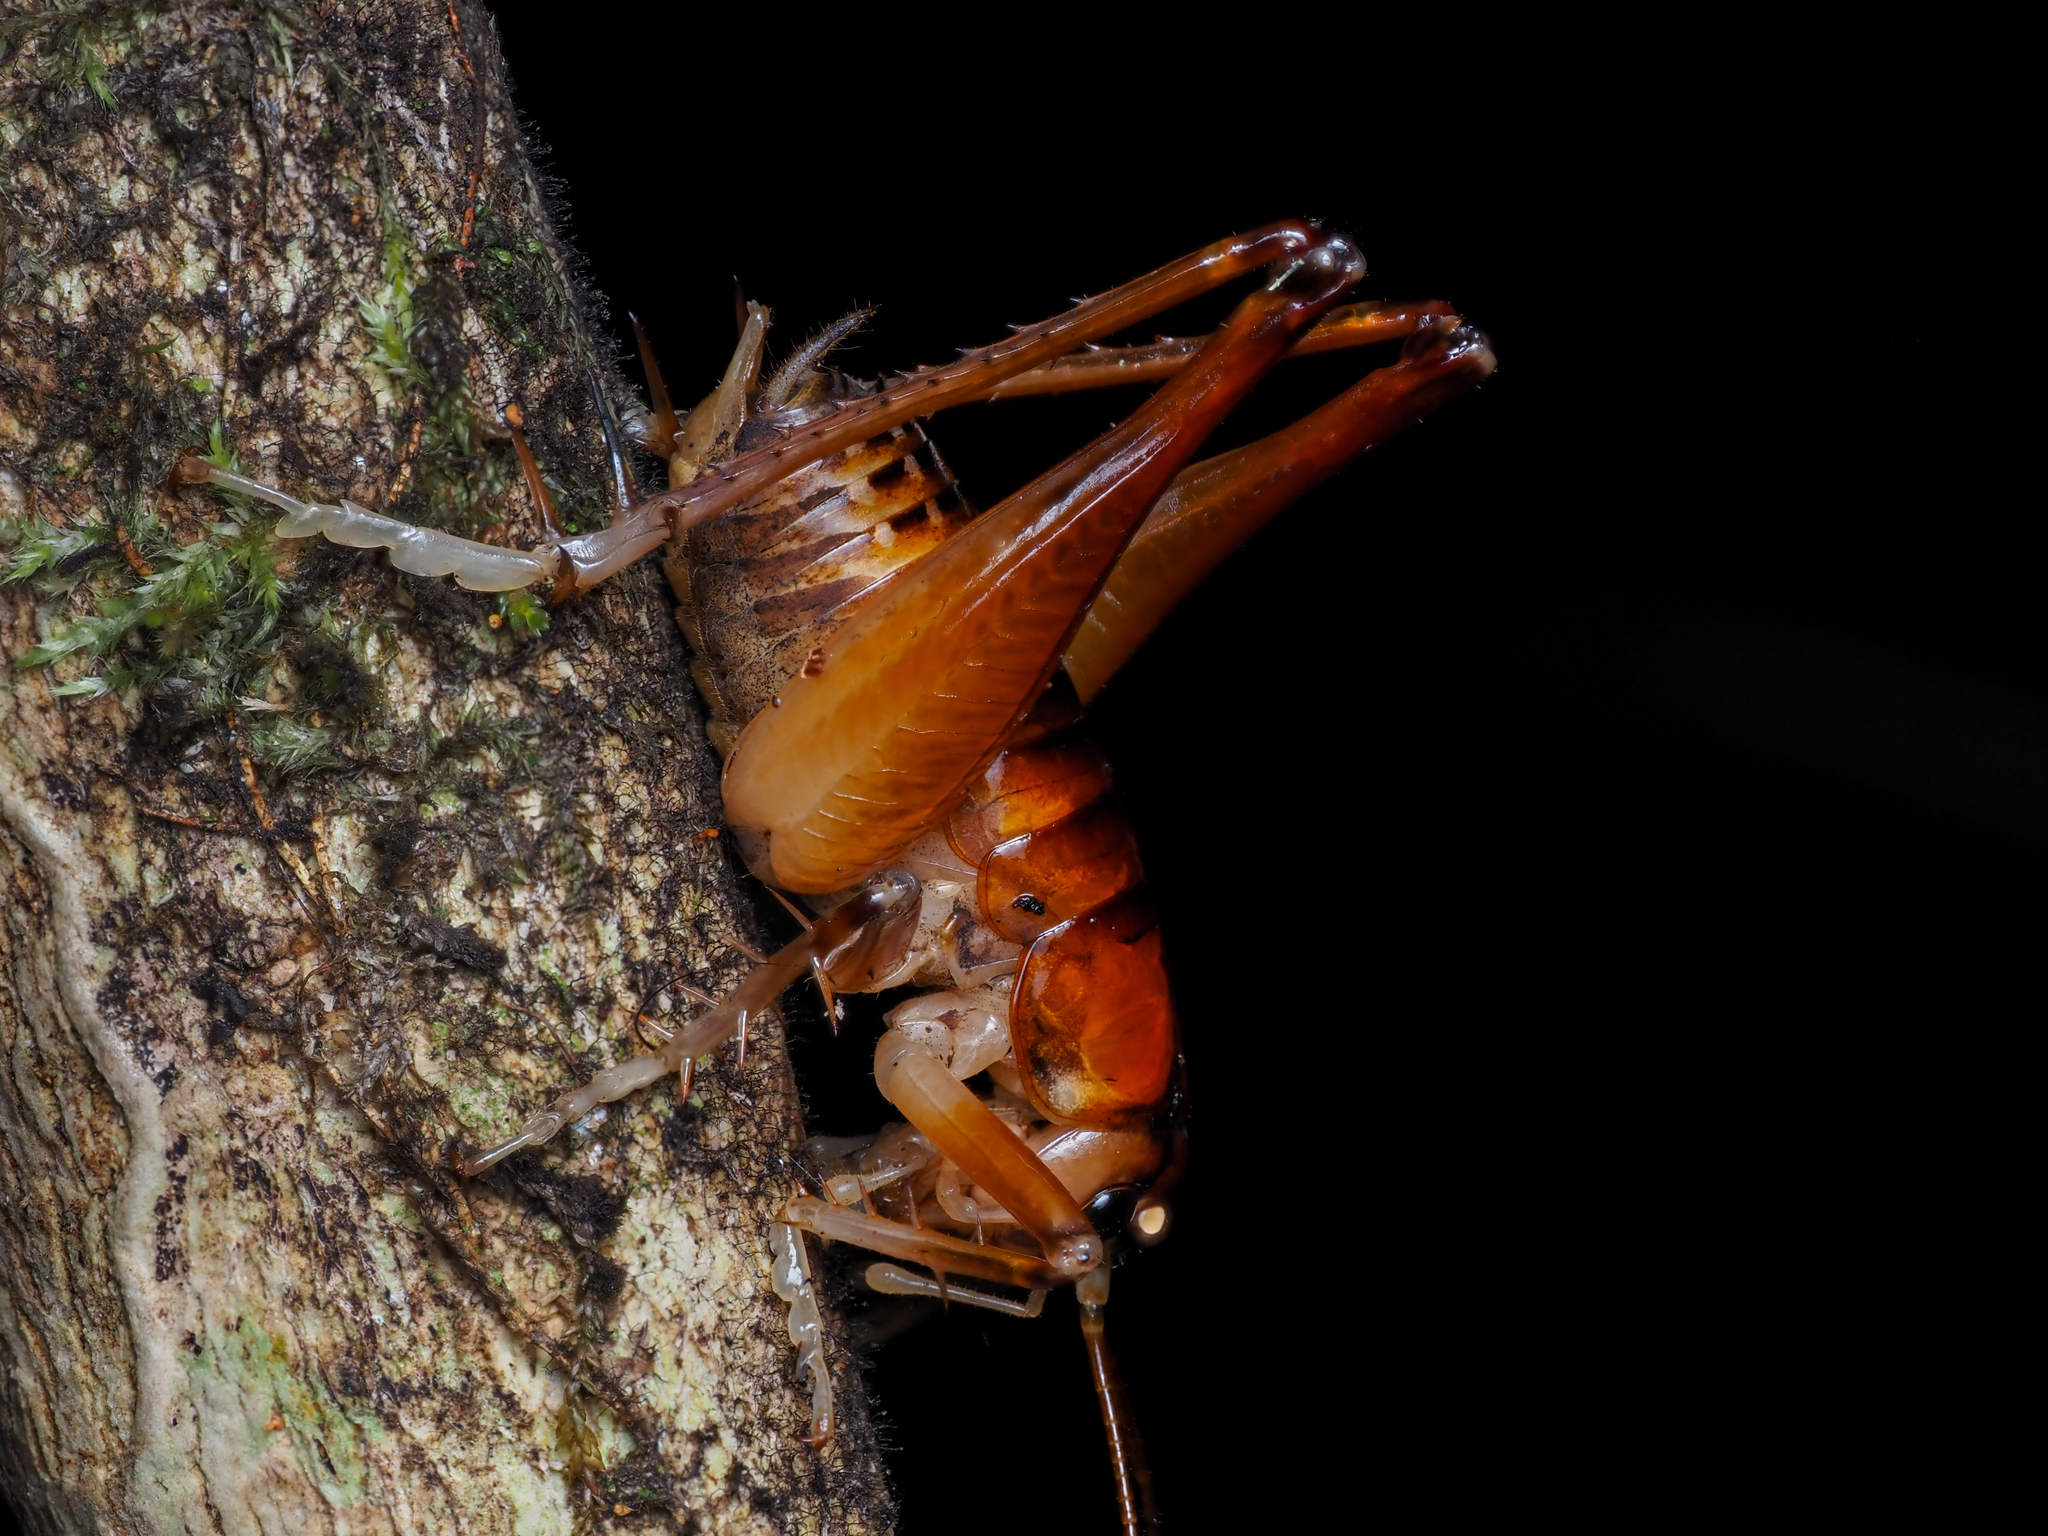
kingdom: Animalia
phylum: Arthropoda
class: Insecta
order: Orthoptera
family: Anostostomatidae
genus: Hemiandrus
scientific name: Hemiandrus jacinda
